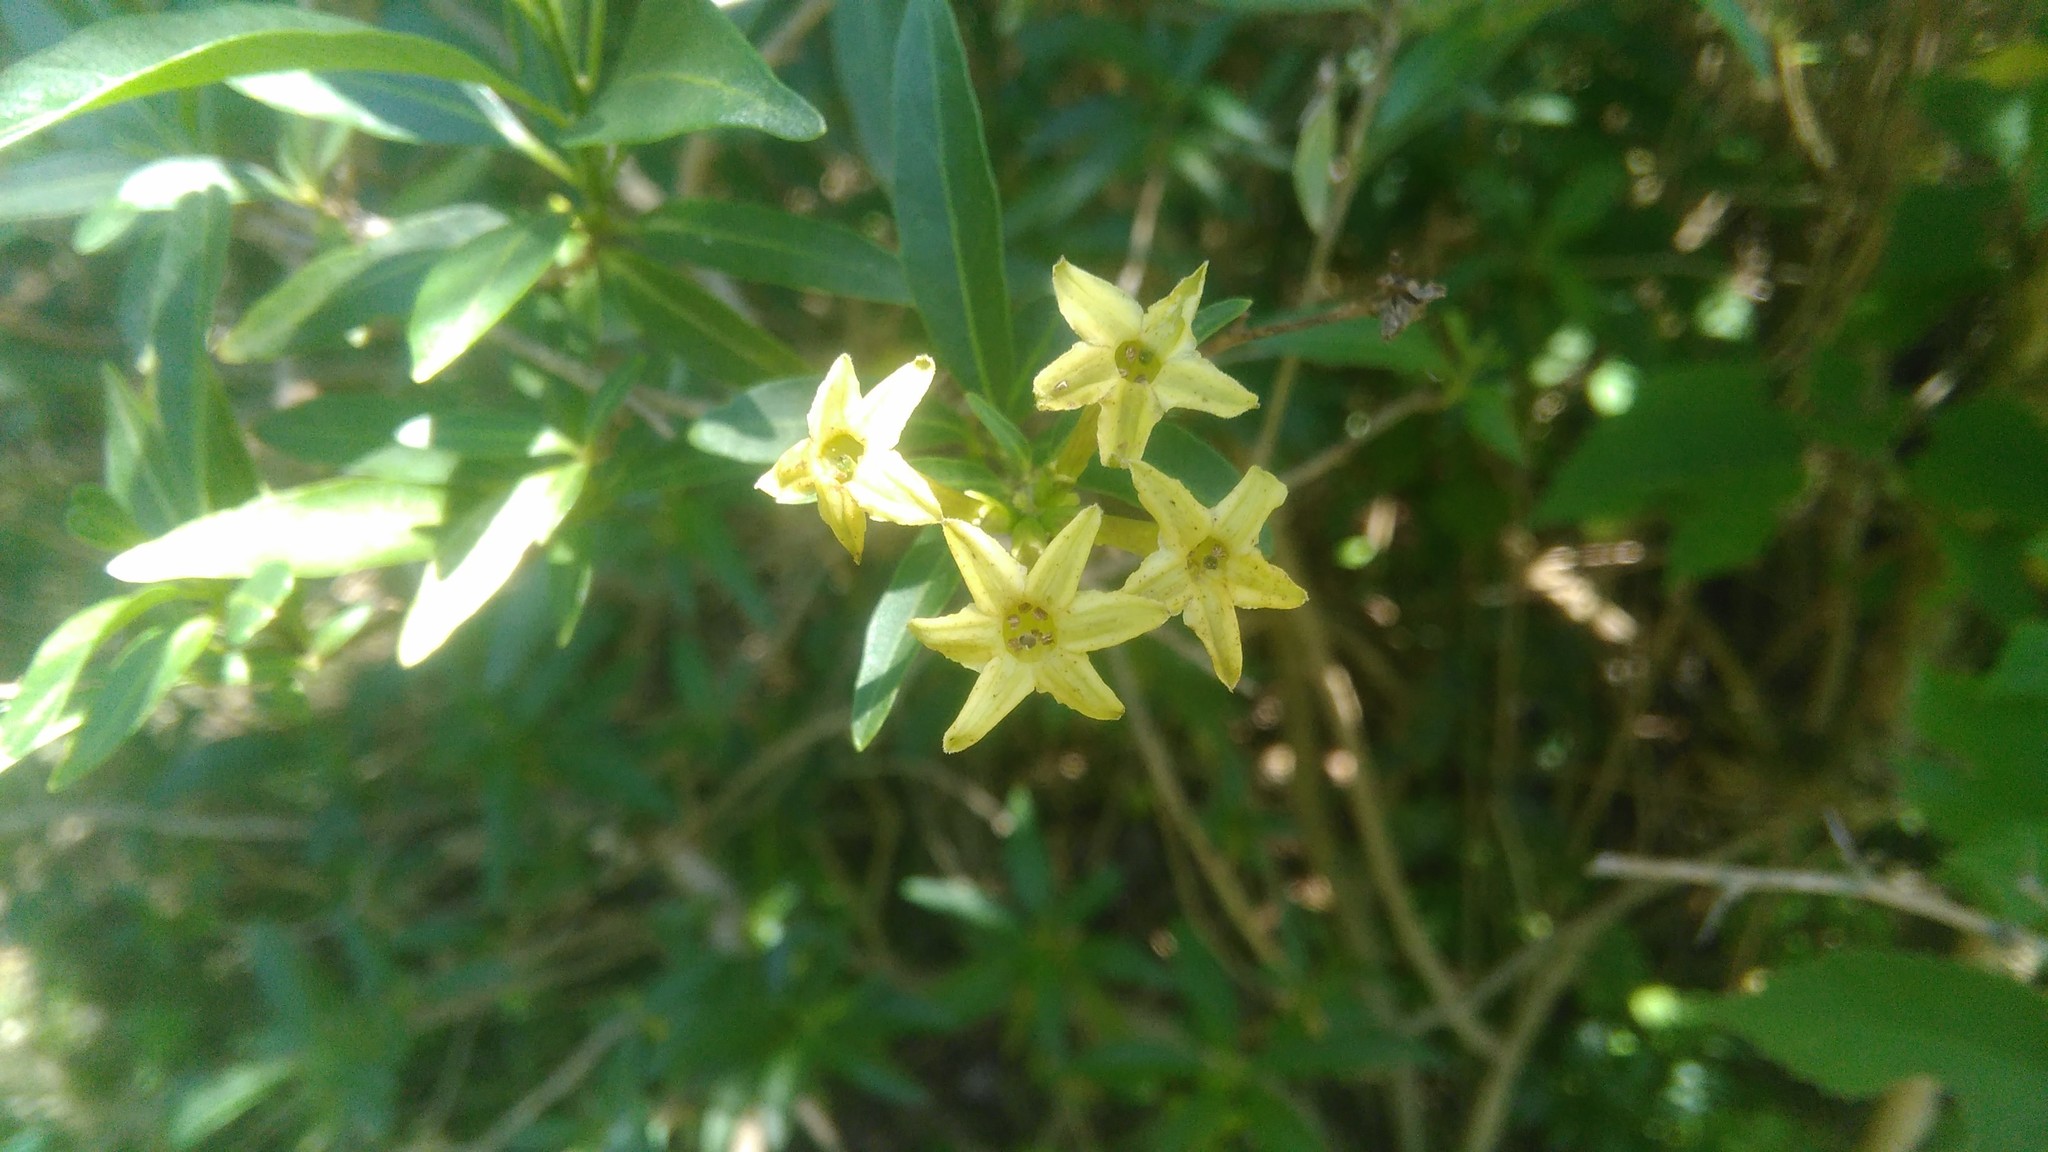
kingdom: Plantae
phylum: Tracheophyta
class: Magnoliopsida
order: Solanales
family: Solanaceae
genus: Cestrum
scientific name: Cestrum parqui
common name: Chilean cestrum
